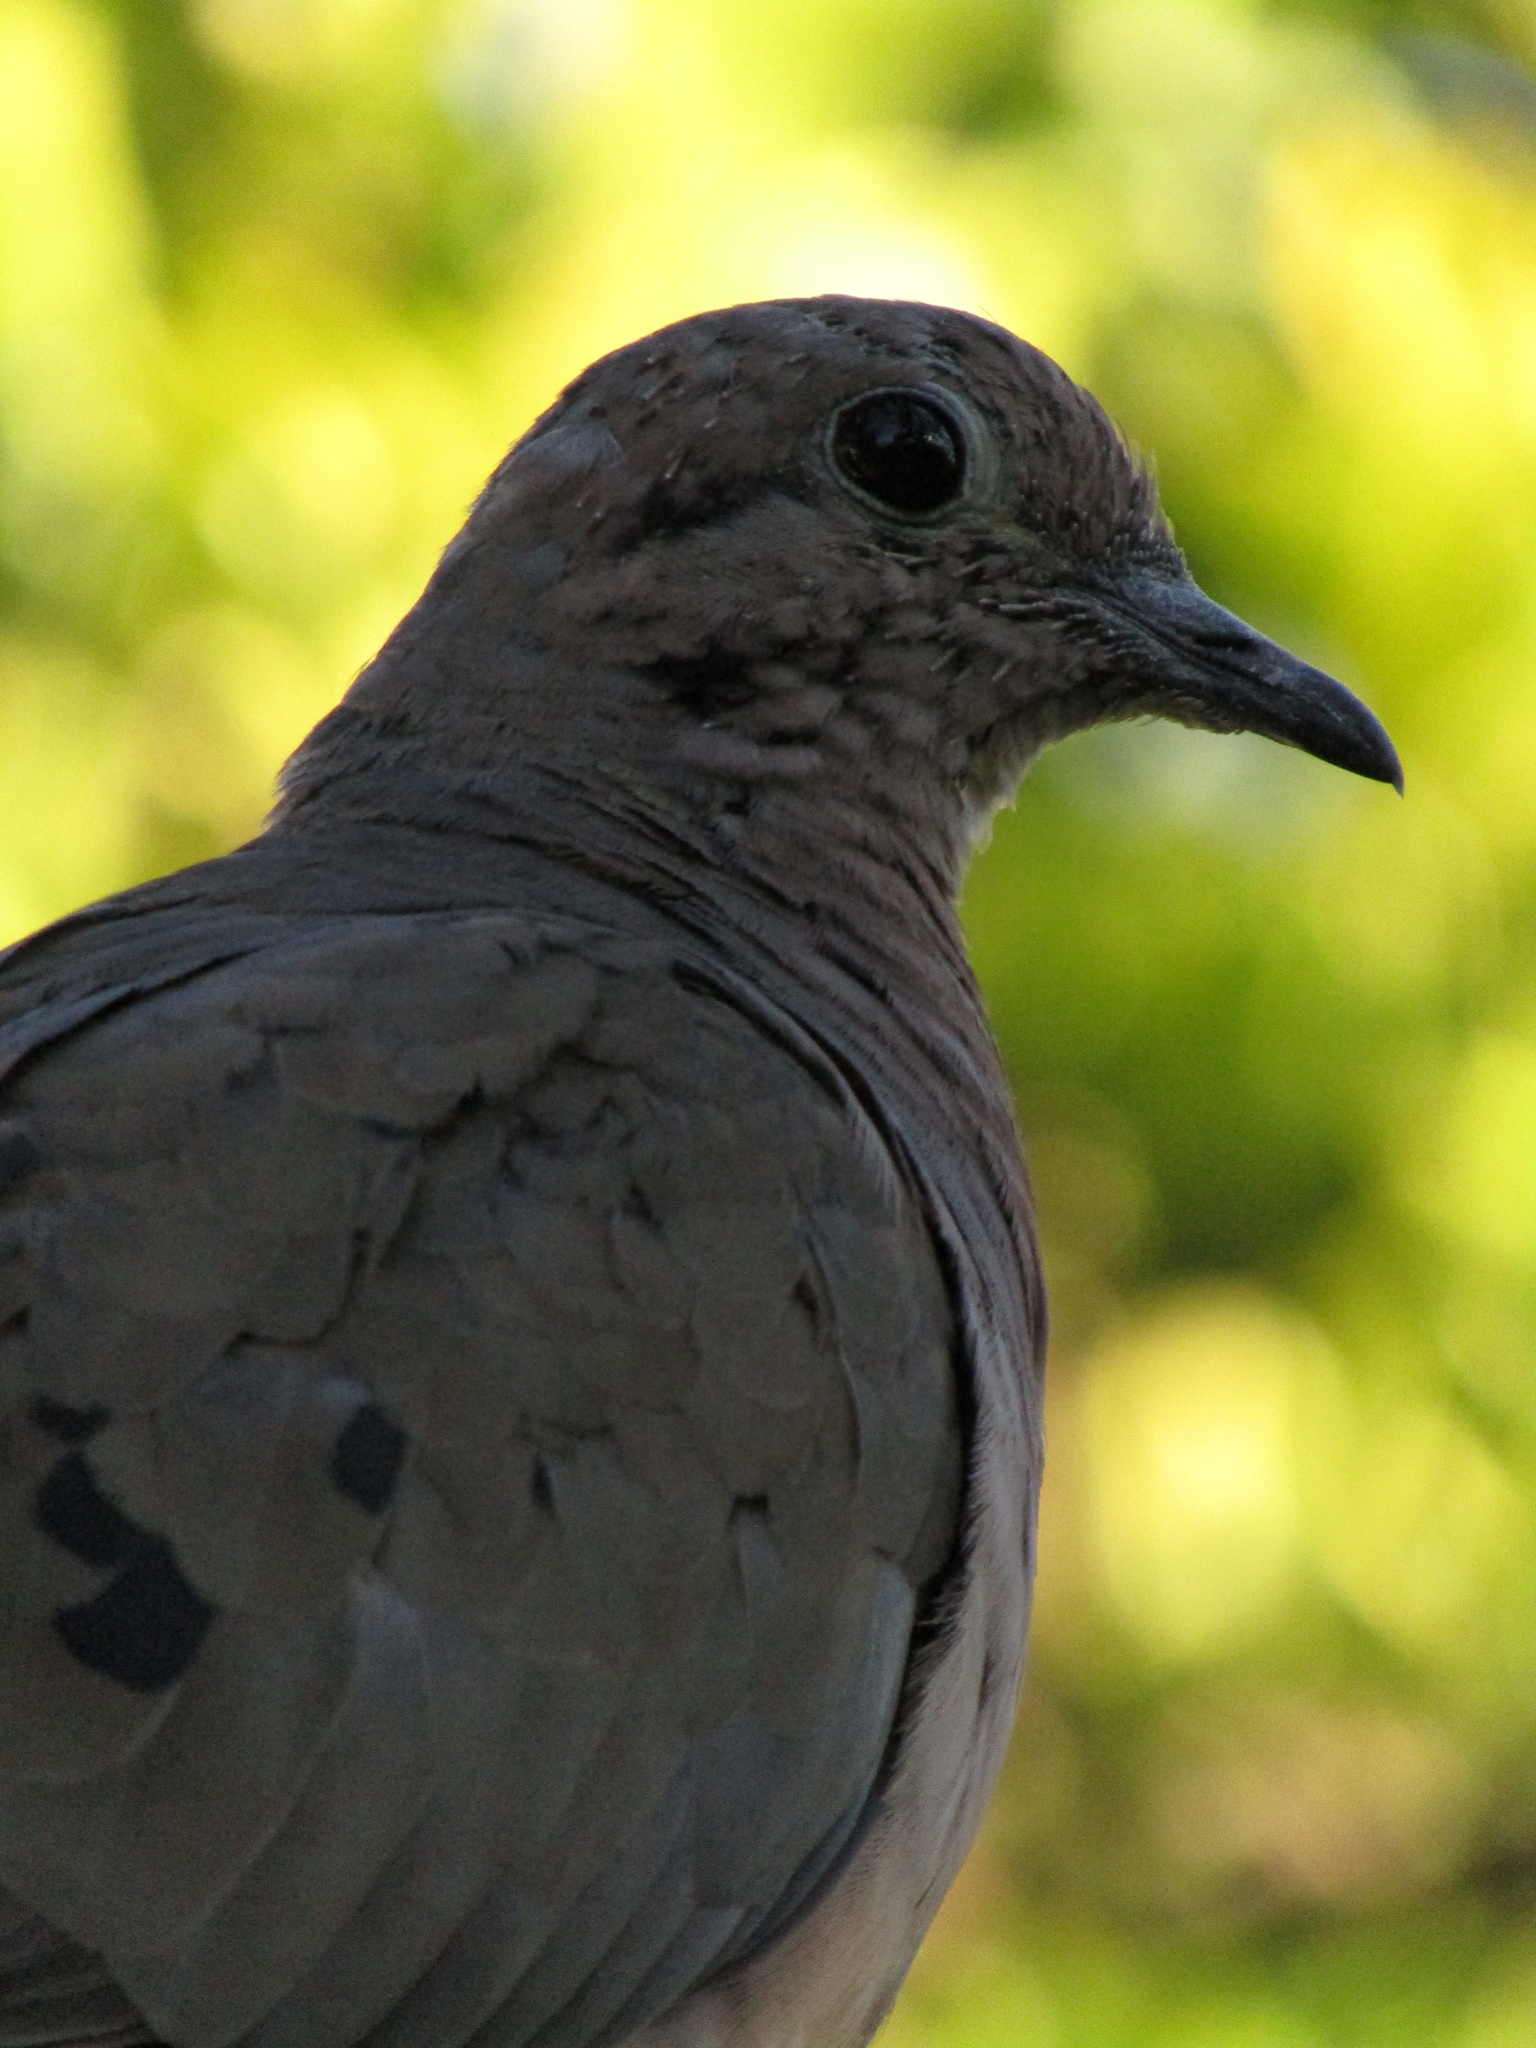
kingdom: Animalia
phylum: Chordata
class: Aves
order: Columbiformes
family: Columbidae
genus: Zenaida
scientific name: Zenaida auriculata
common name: Eared dove
